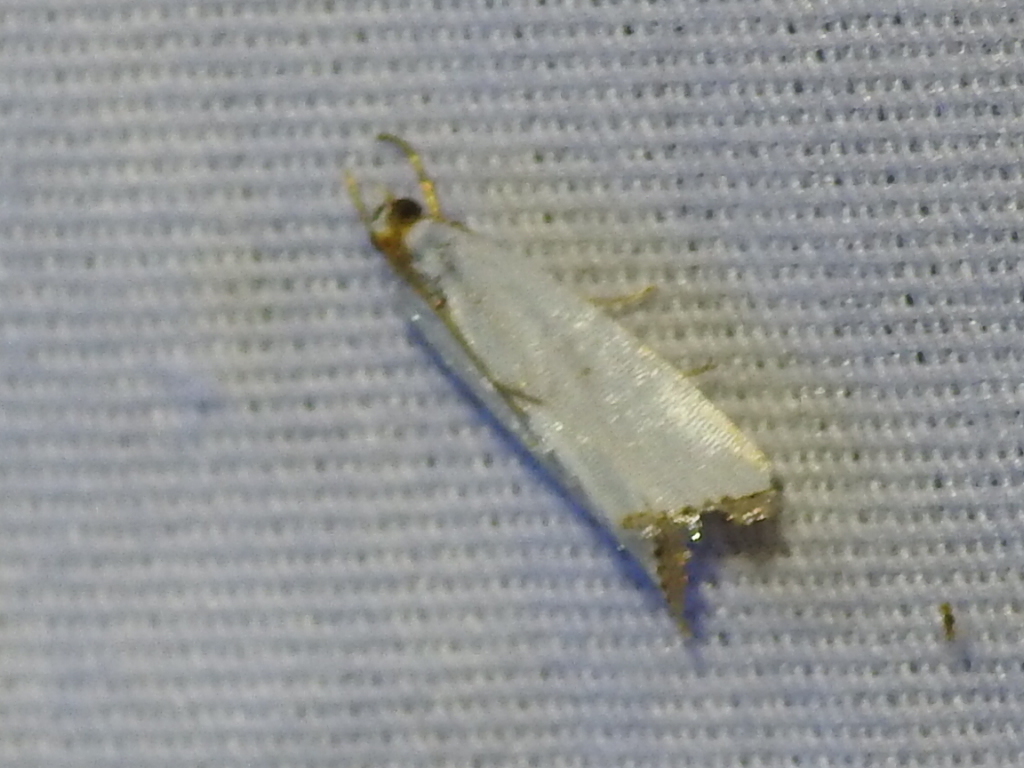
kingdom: Animalia
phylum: Arthropoda
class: Insecta
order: Lepidoptera
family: Crambidae
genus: Argyria
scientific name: Argyria pusillalis
